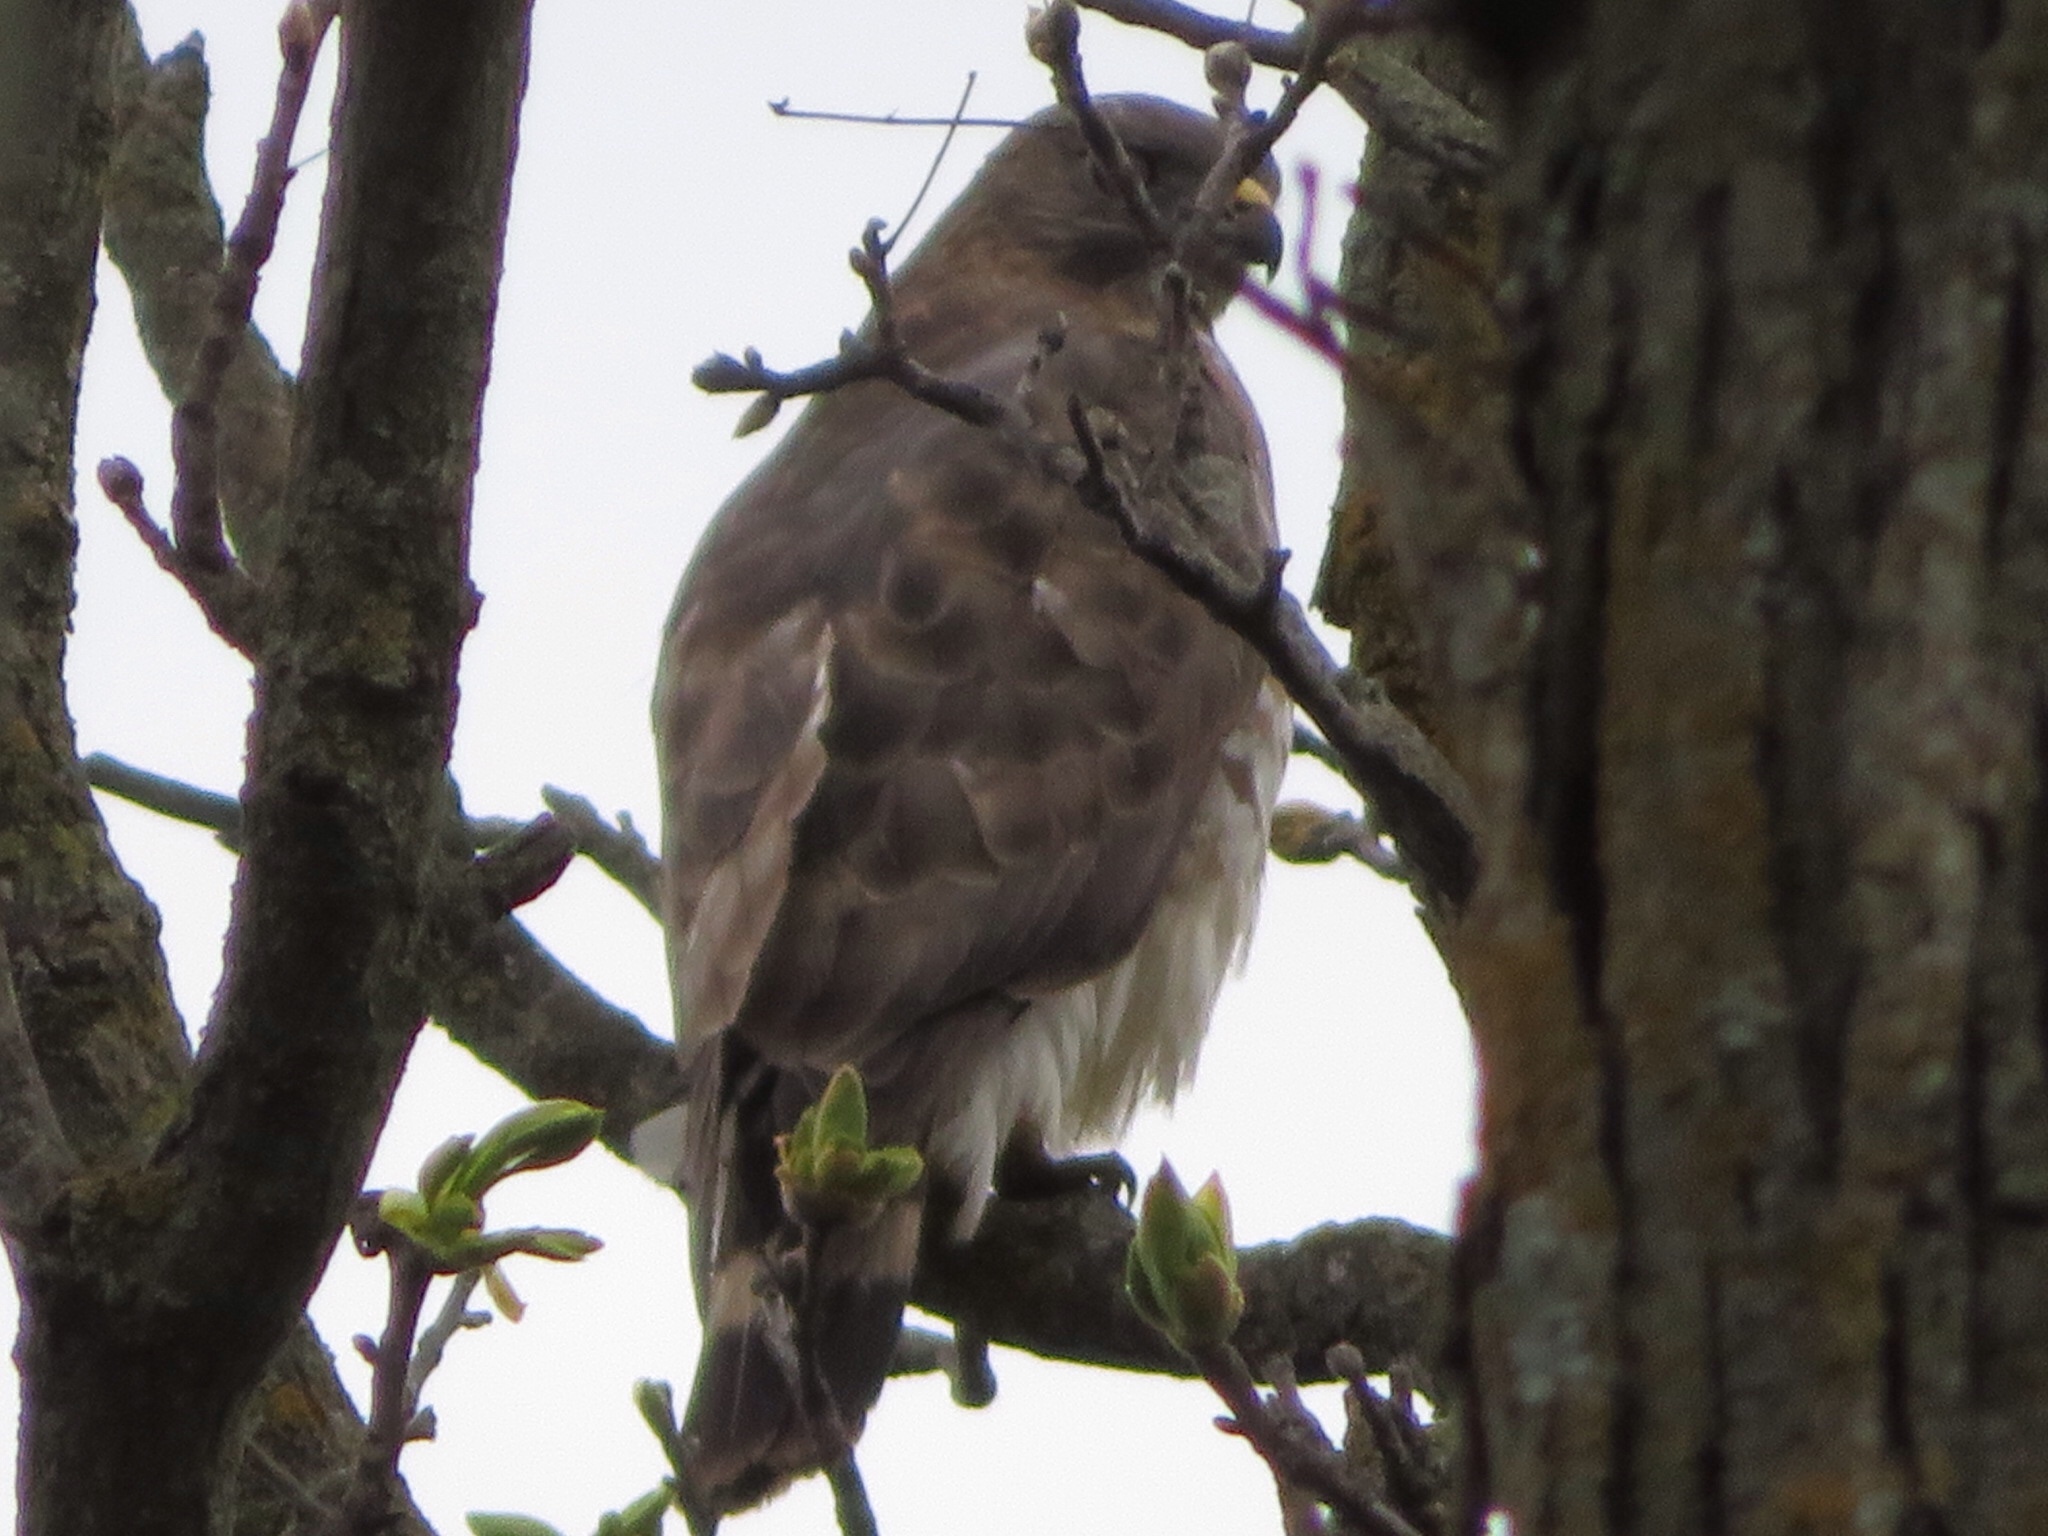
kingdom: Animalia
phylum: Chordata
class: Aves
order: Accipitriformes
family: Accipitridae
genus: Buteo
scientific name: Buteo platypterus
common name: Broad-winged hawk
